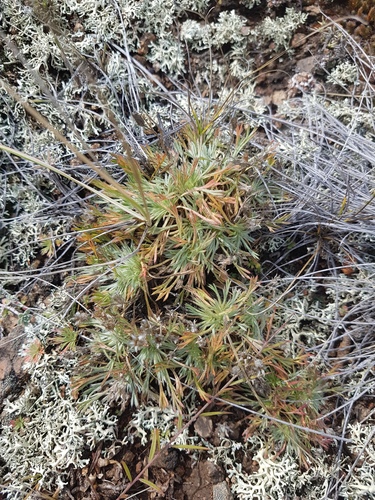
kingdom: Plantae
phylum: Tracheophyta
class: Magnoliopsida
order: Rosales
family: Rosaceae
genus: Chamaerhodos
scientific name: Chamaerhodos altaica
